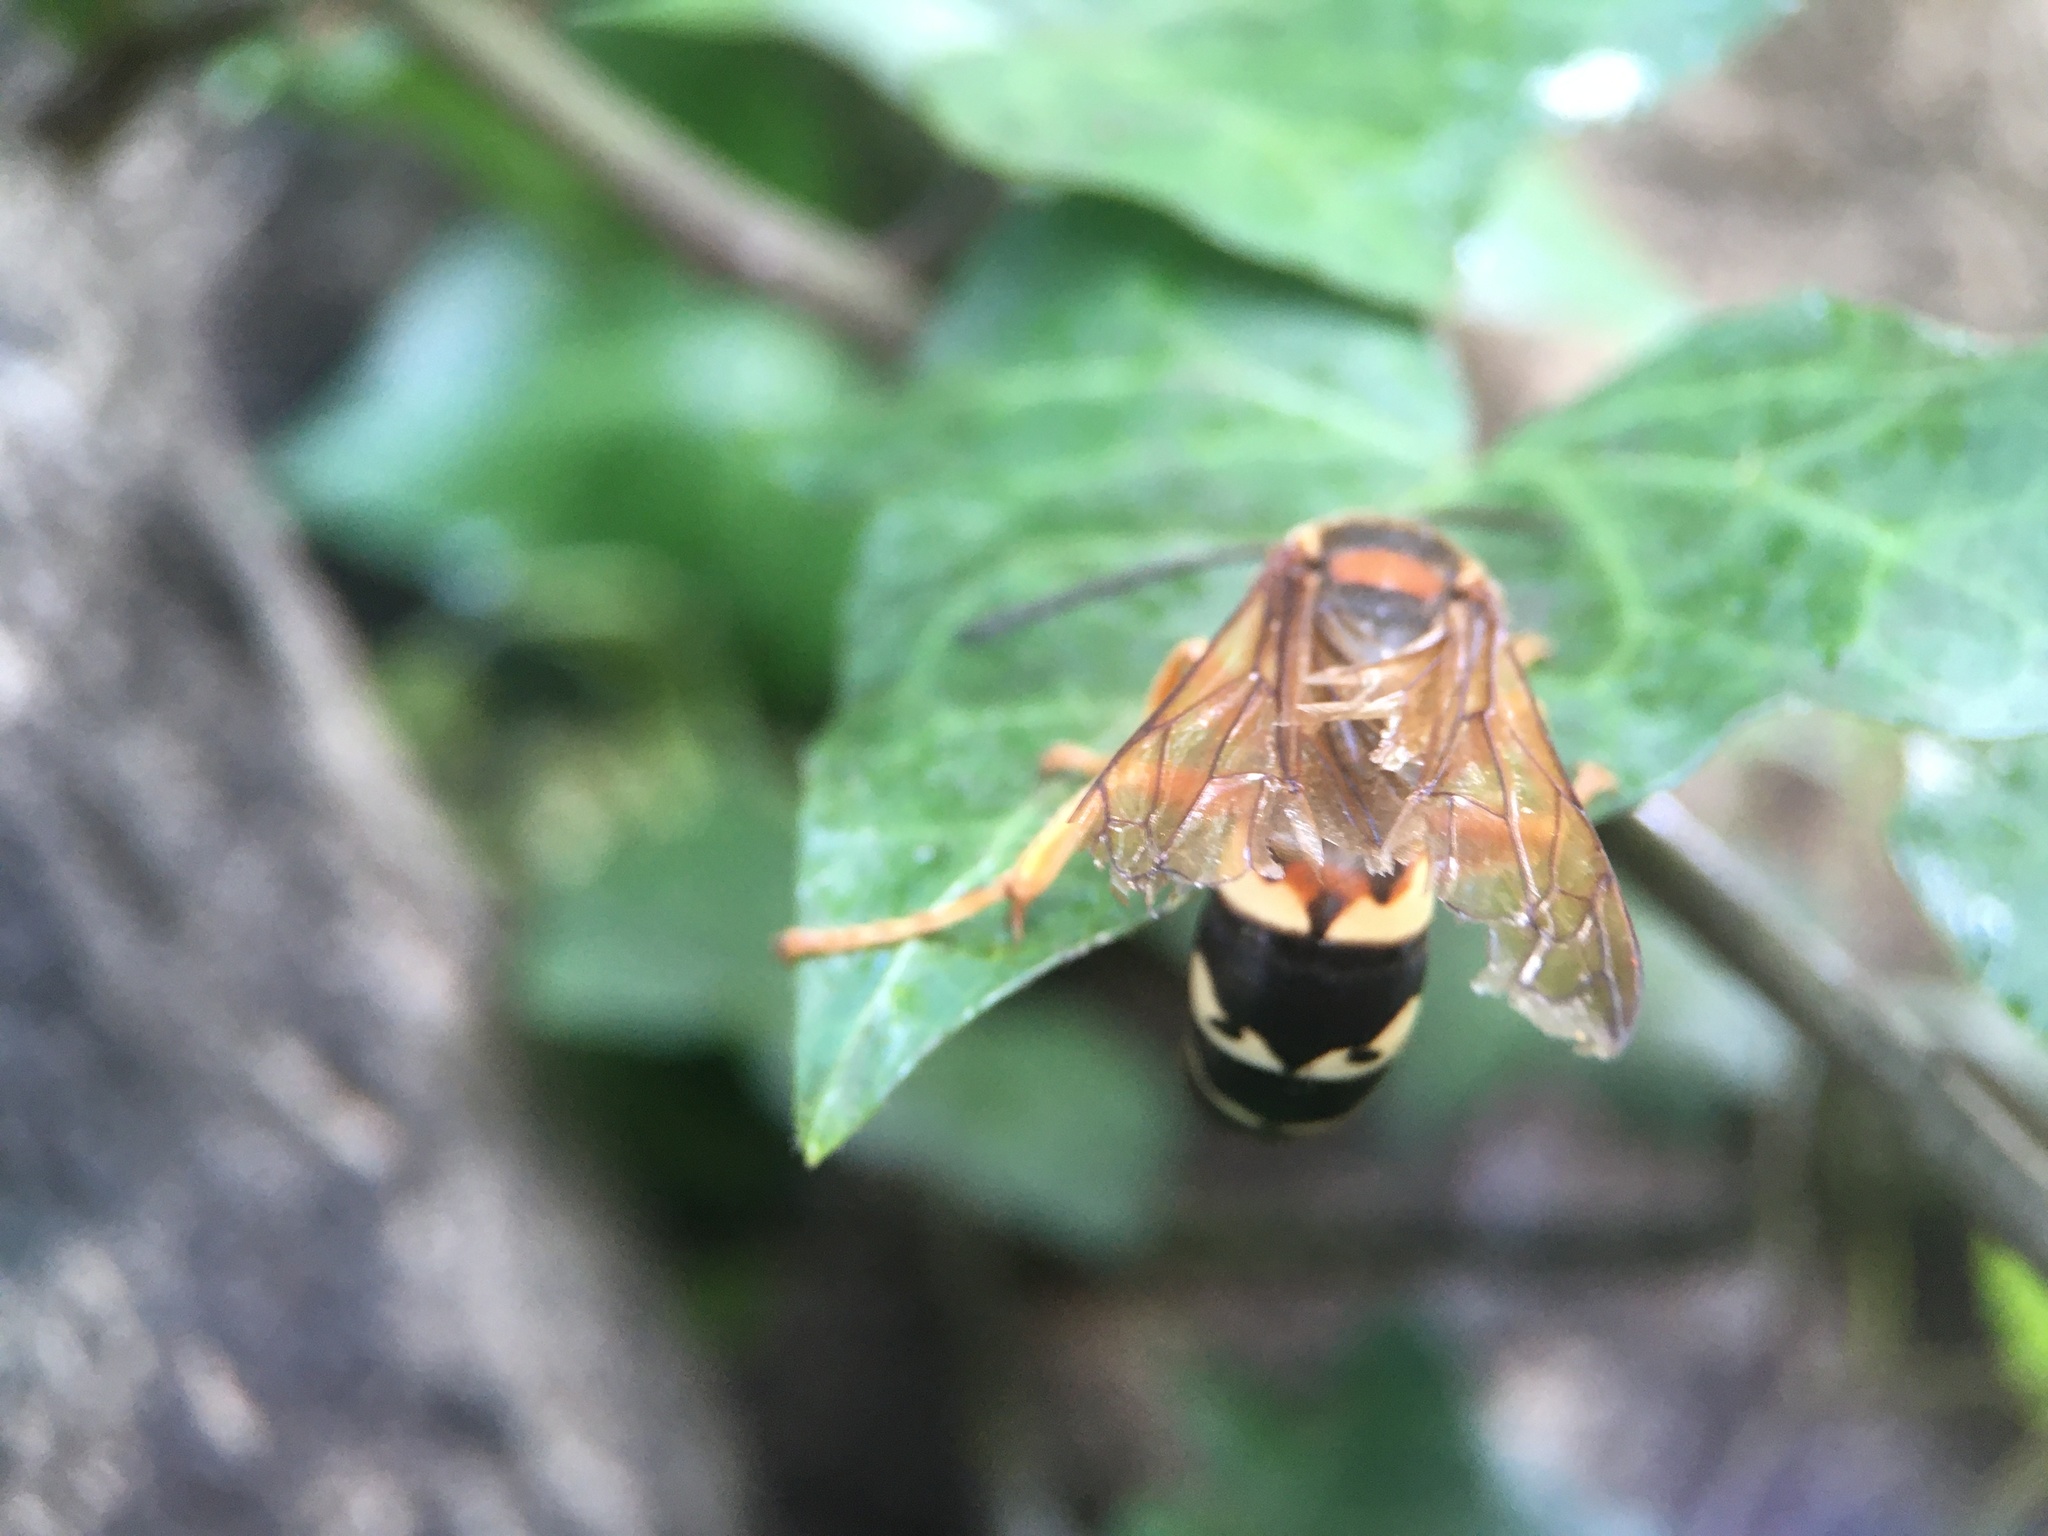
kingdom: Animalia
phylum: Arthropoda
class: Insecta
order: Hymenoptera
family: Crabronidae
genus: Sphecius
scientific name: Sphecius speciosus
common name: Cicada killer
